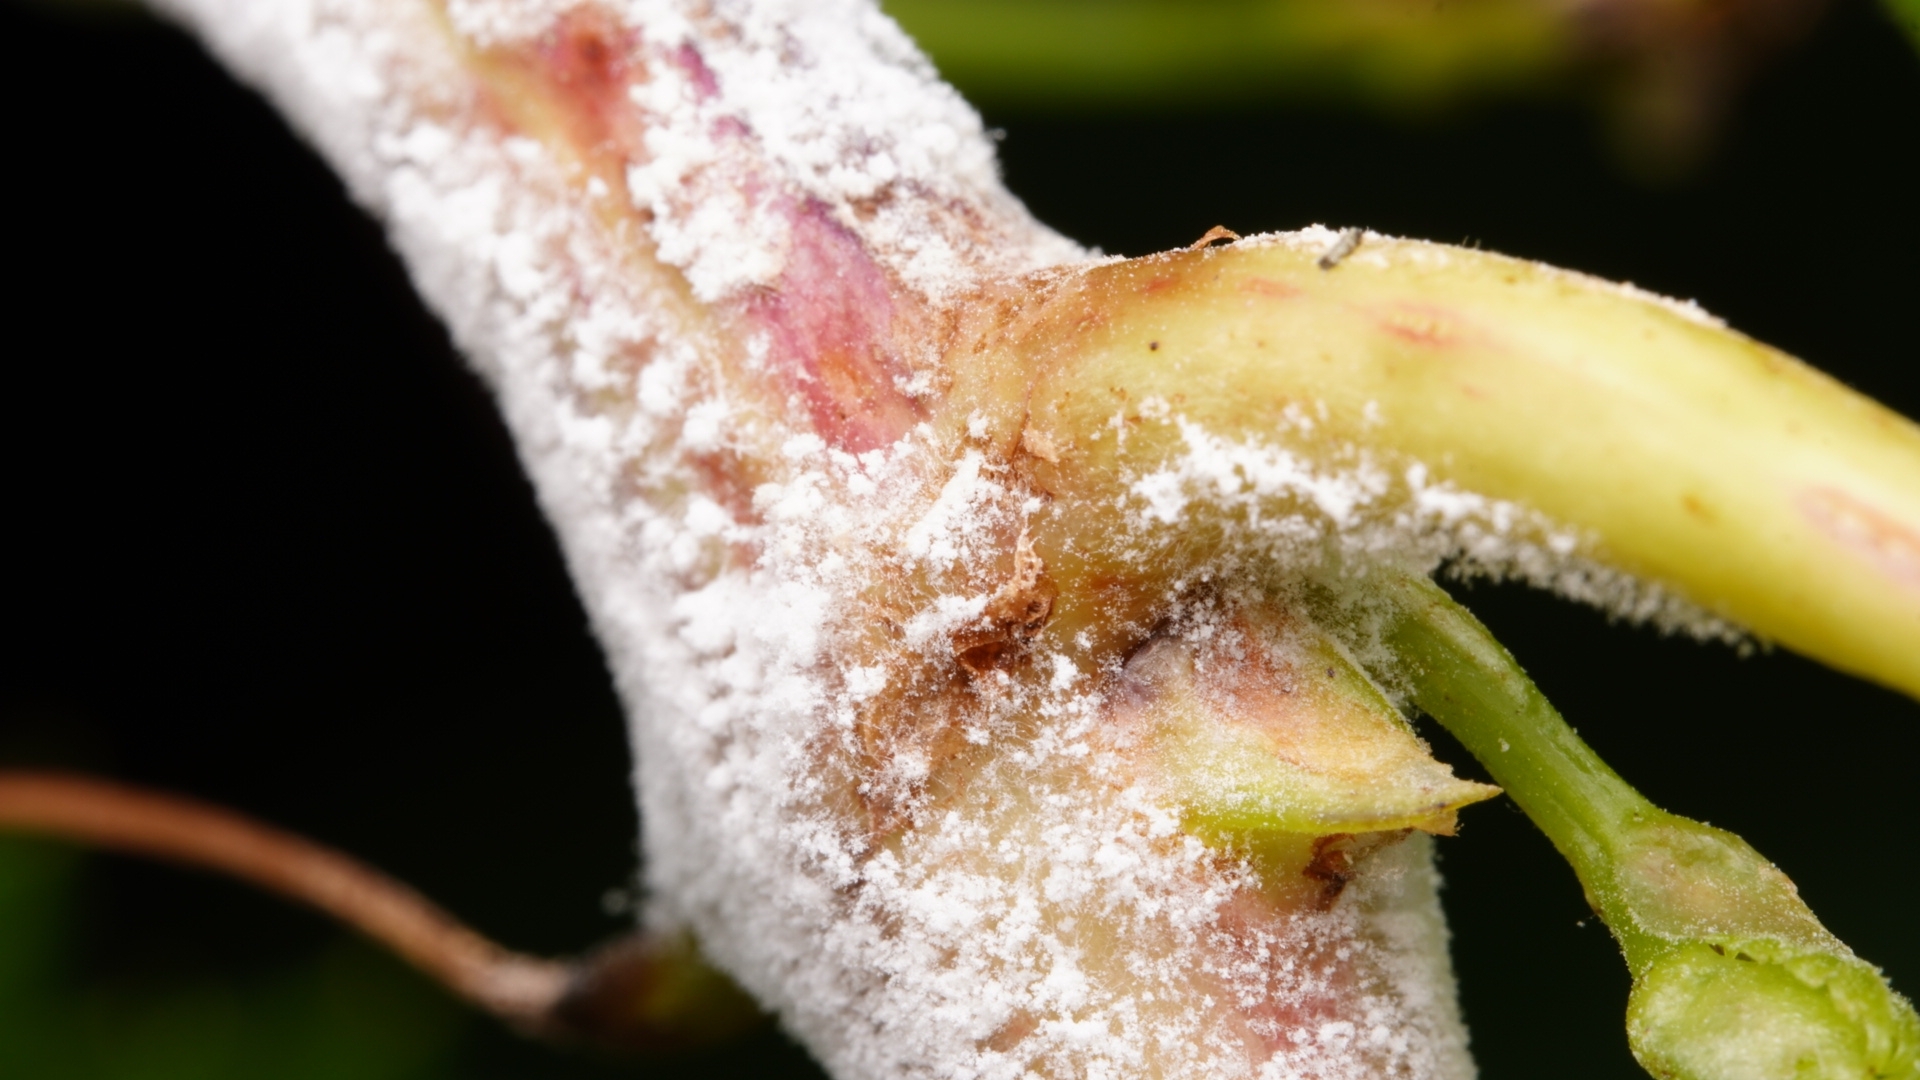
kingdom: Chromista
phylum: Oomycota
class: Peronosporea
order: Peronosporales
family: Peronosporaceae
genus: Plasmopara
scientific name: Plasmopara viticola
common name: Grapevine downy mildew
